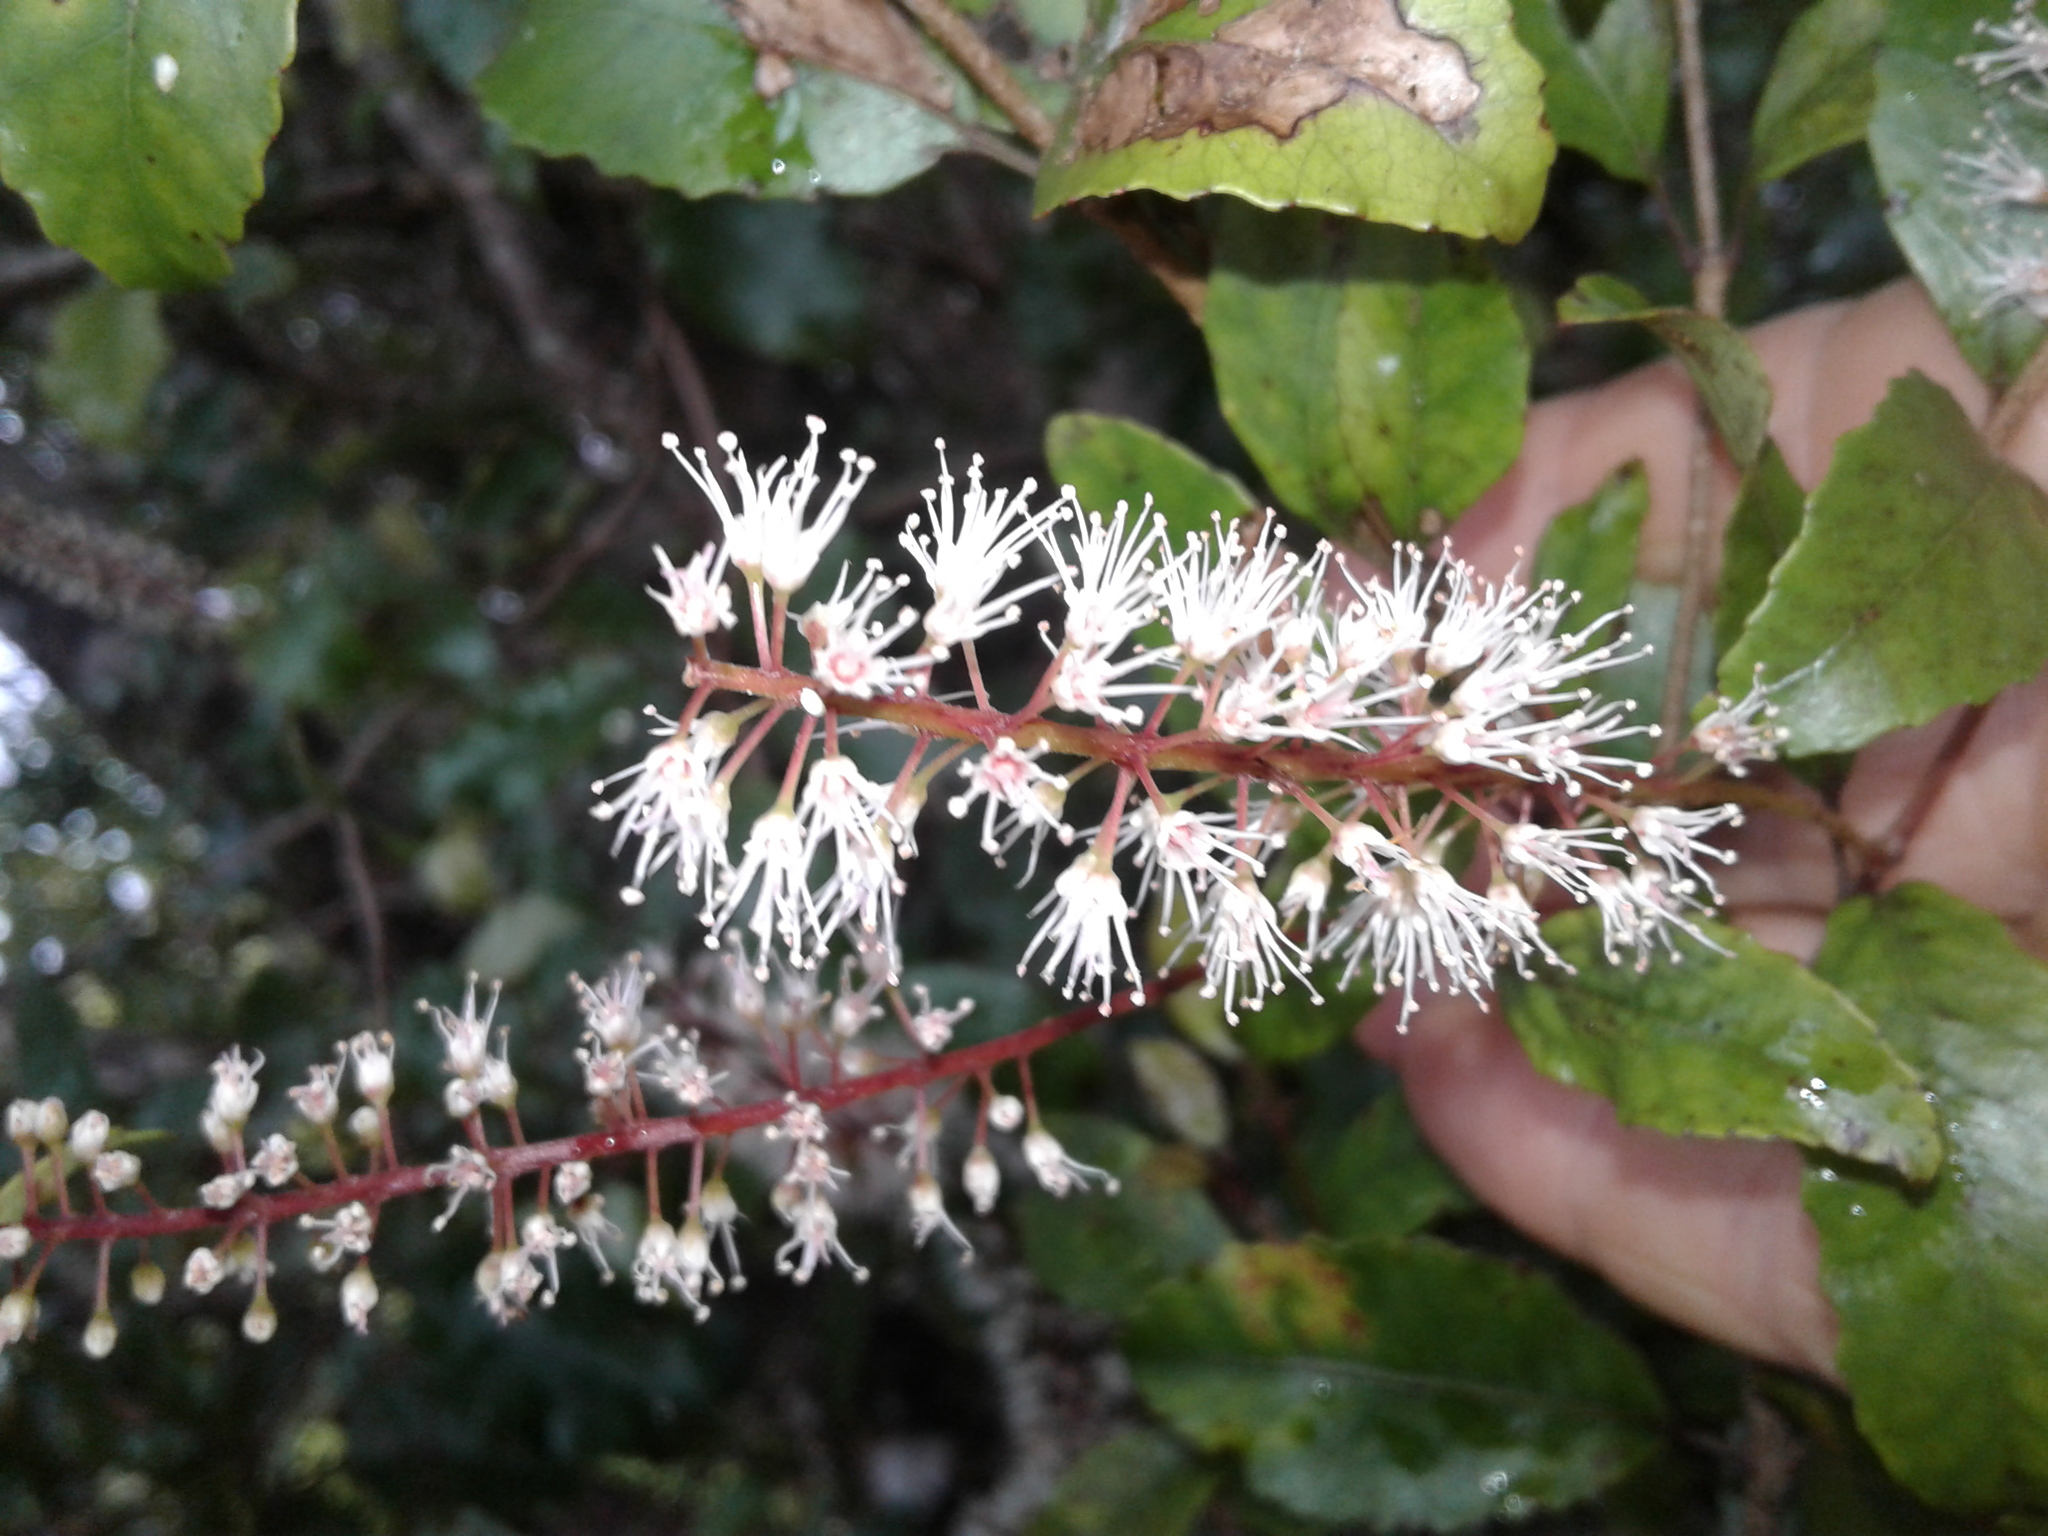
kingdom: Plantae
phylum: Tracheophyta
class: Magnoliopsida
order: Oxalidales
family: Cunoniaceae
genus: Pterophylla
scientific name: Pterophylla racemosa
